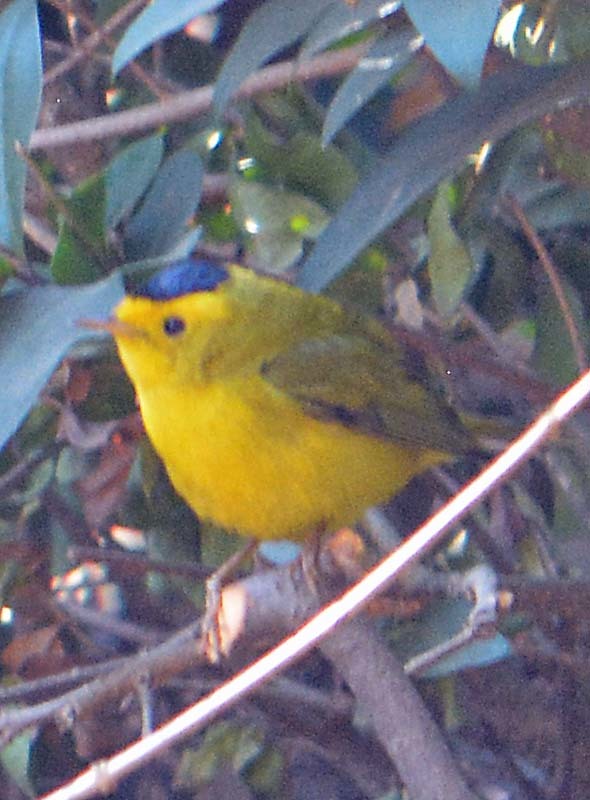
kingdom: Animalia
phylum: Chordata
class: Aves
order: Passeriformes
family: Parulidae
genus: Cardellina
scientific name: Cardellina pusilla
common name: Wilson's warbler
